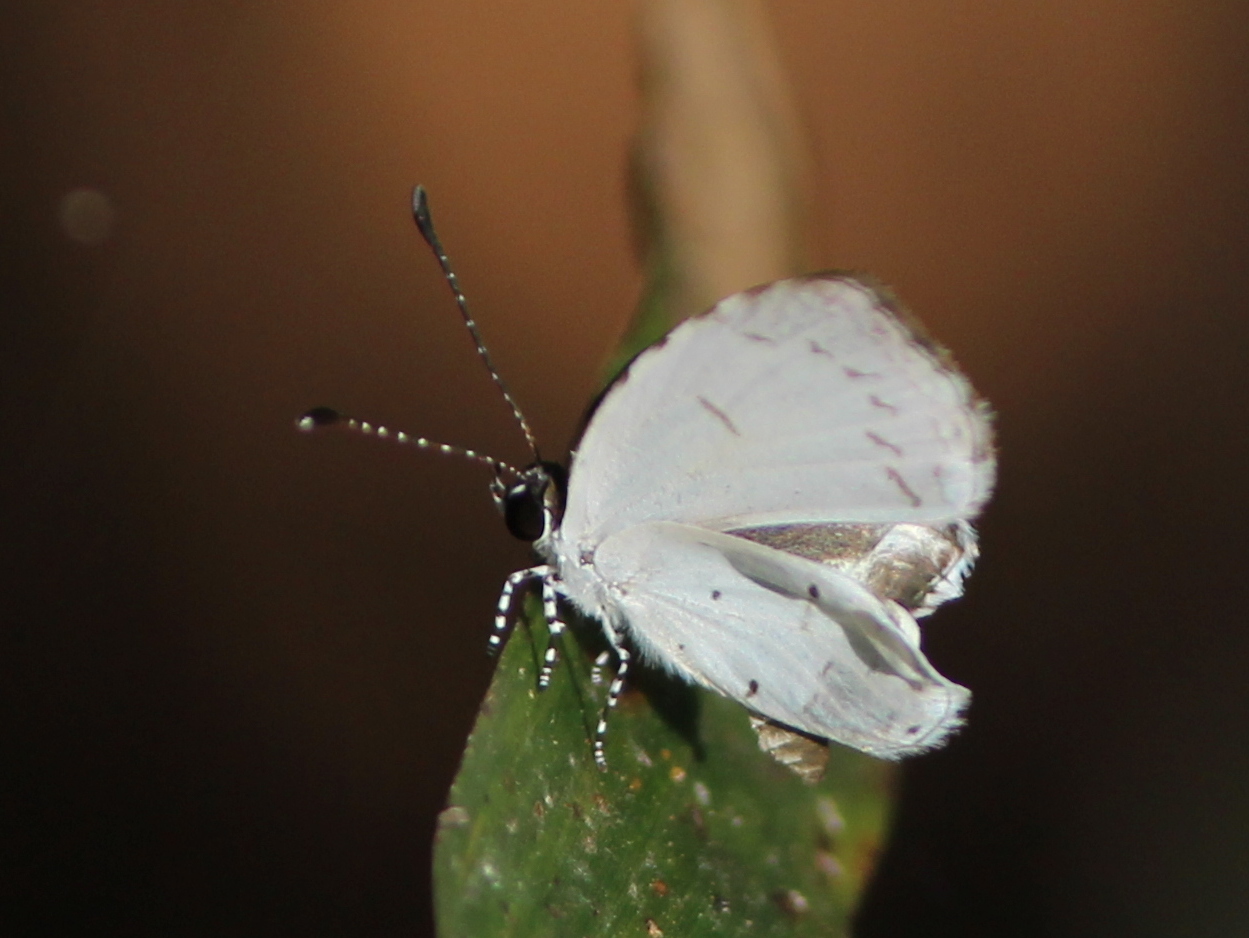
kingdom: Animalia
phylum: Arthropoda
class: Insecta
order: Lepidoptera
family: Lycaenidae
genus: Neopithecops
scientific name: Neopithecops zalmora
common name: Quaker
